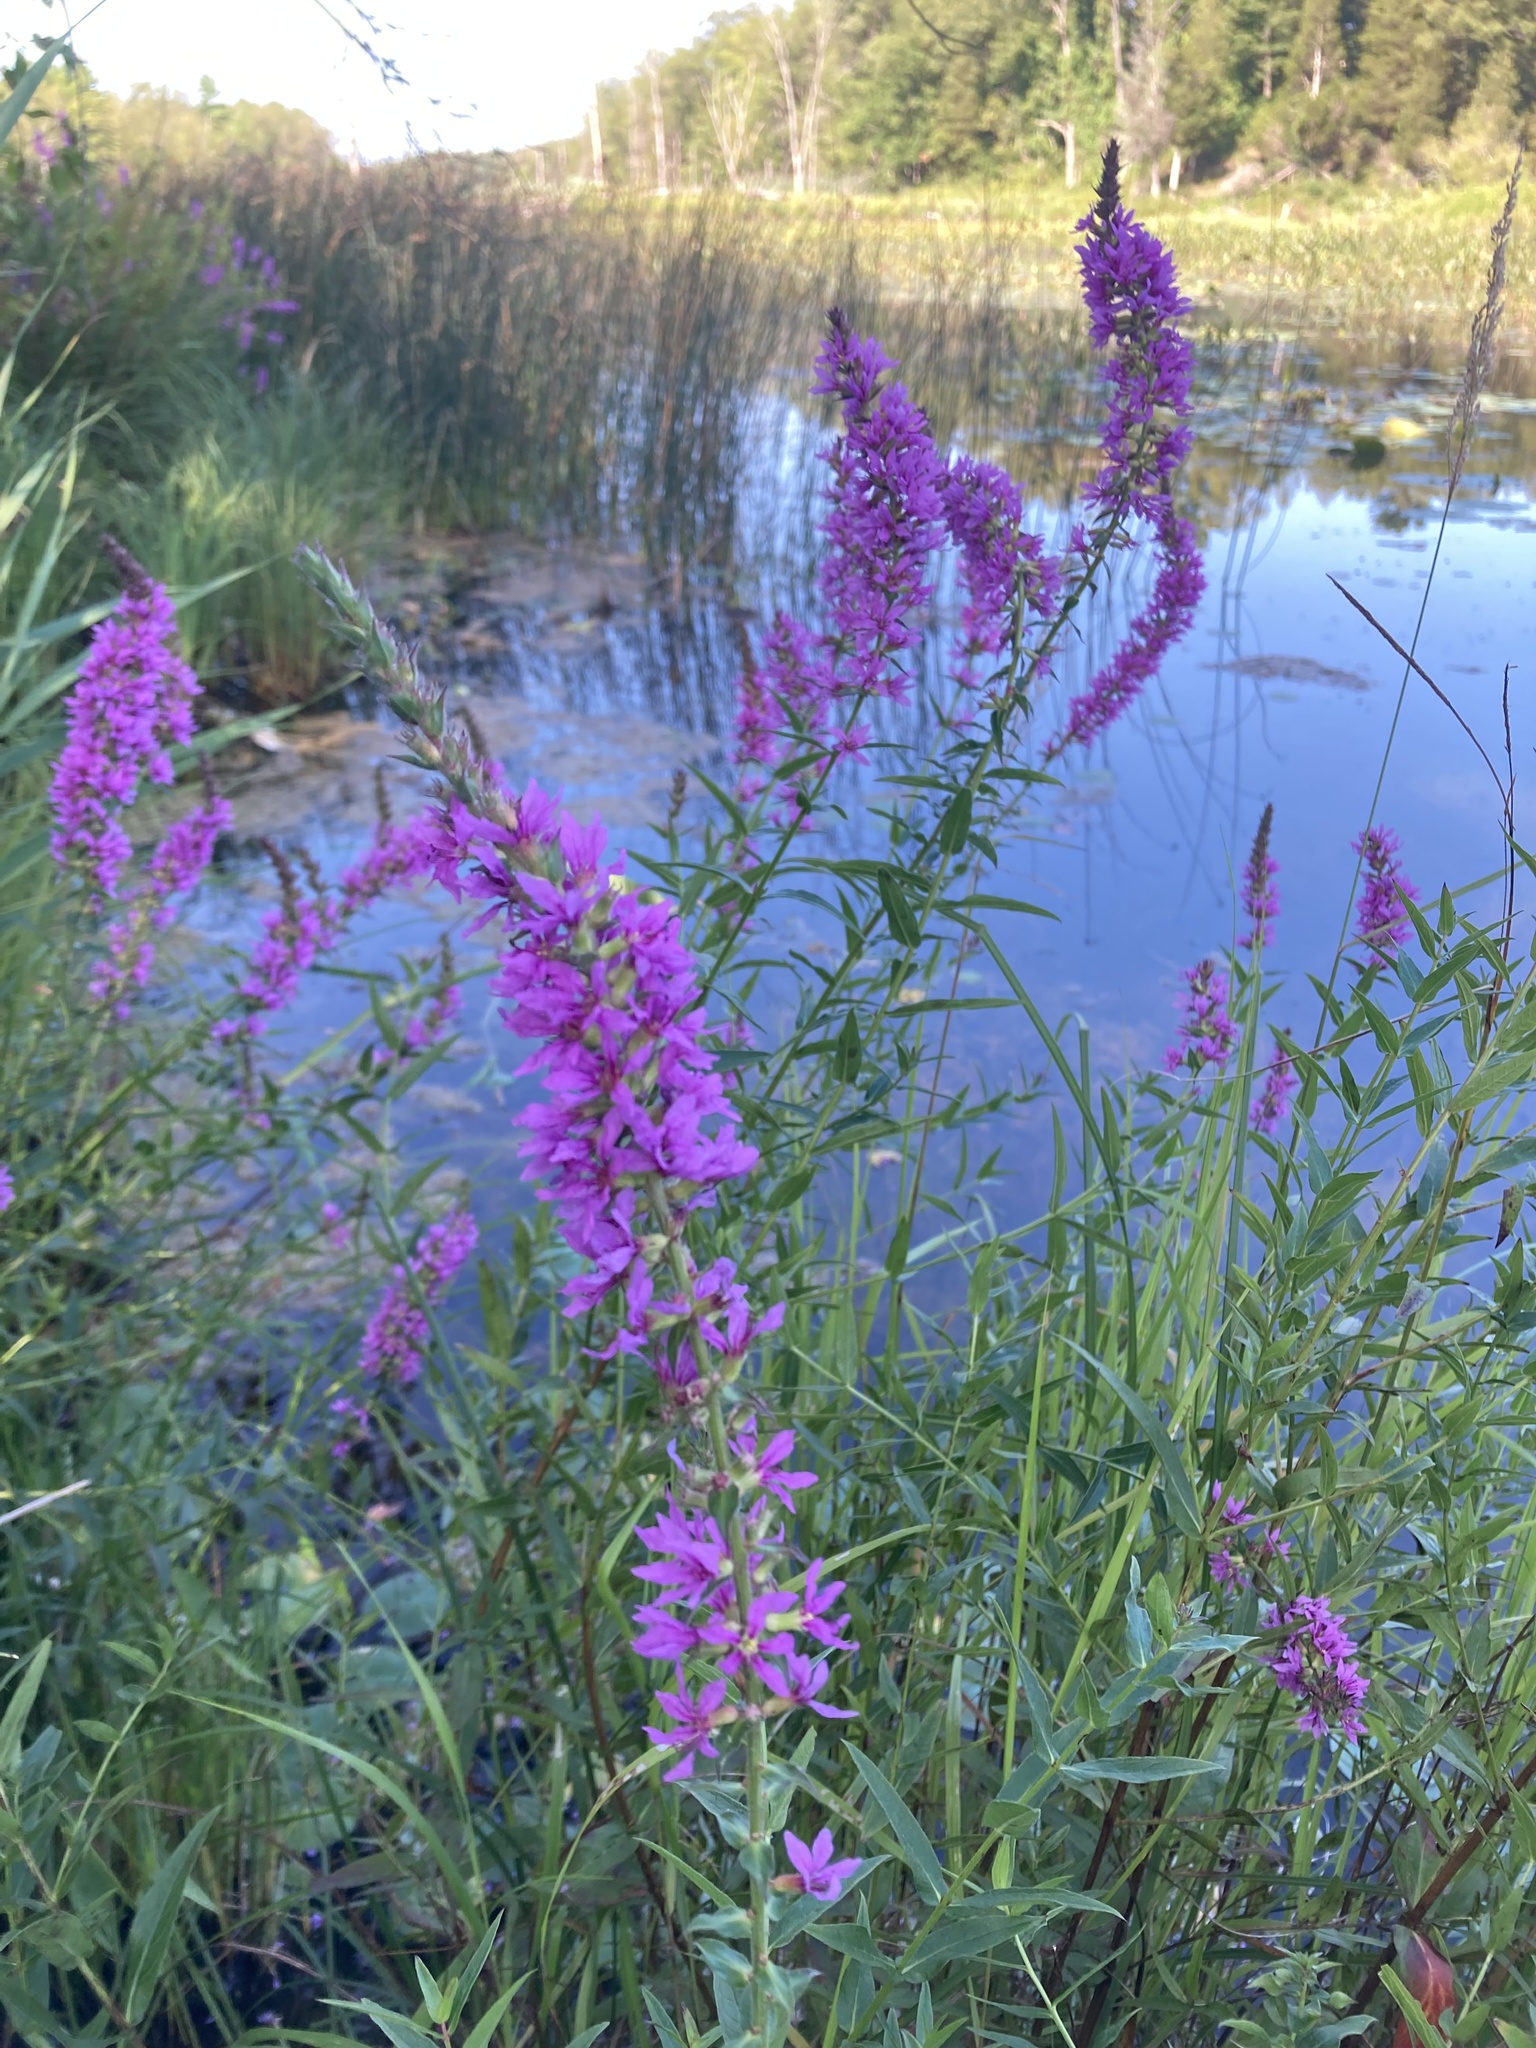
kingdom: Plantae
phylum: Tracheophyta
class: Magnoliopsida
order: Myrtales
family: Lythraceae
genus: Lythrum
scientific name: Lythrum salicaria
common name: Purple loosestrife
